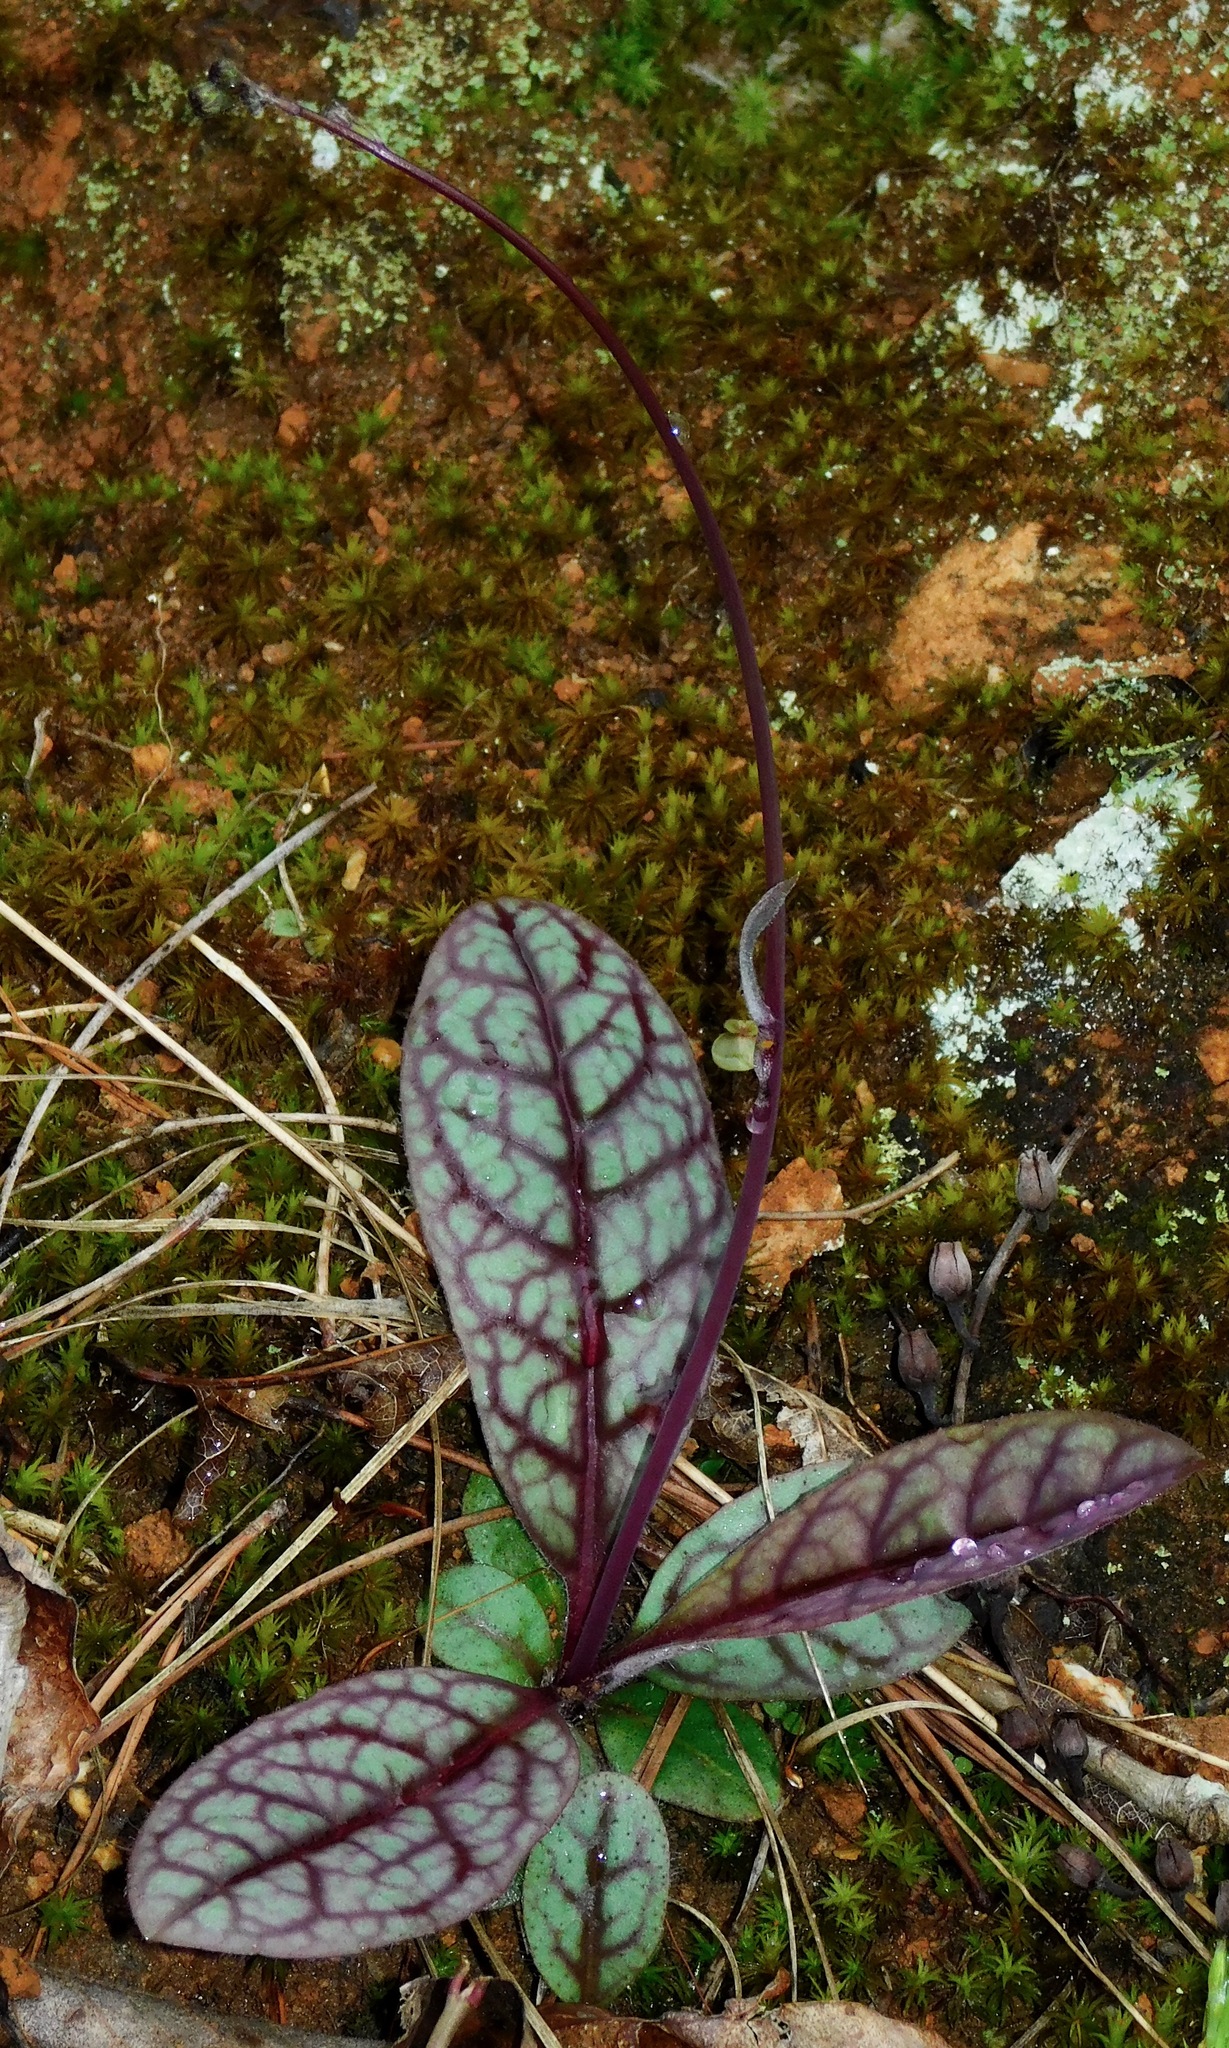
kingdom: Plantae
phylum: Tracheophyta
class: Magnoliopsida
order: Asterales
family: Asteraceae
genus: Hieracium
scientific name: Hieracium venosum
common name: Rattlesnake hawkweed
